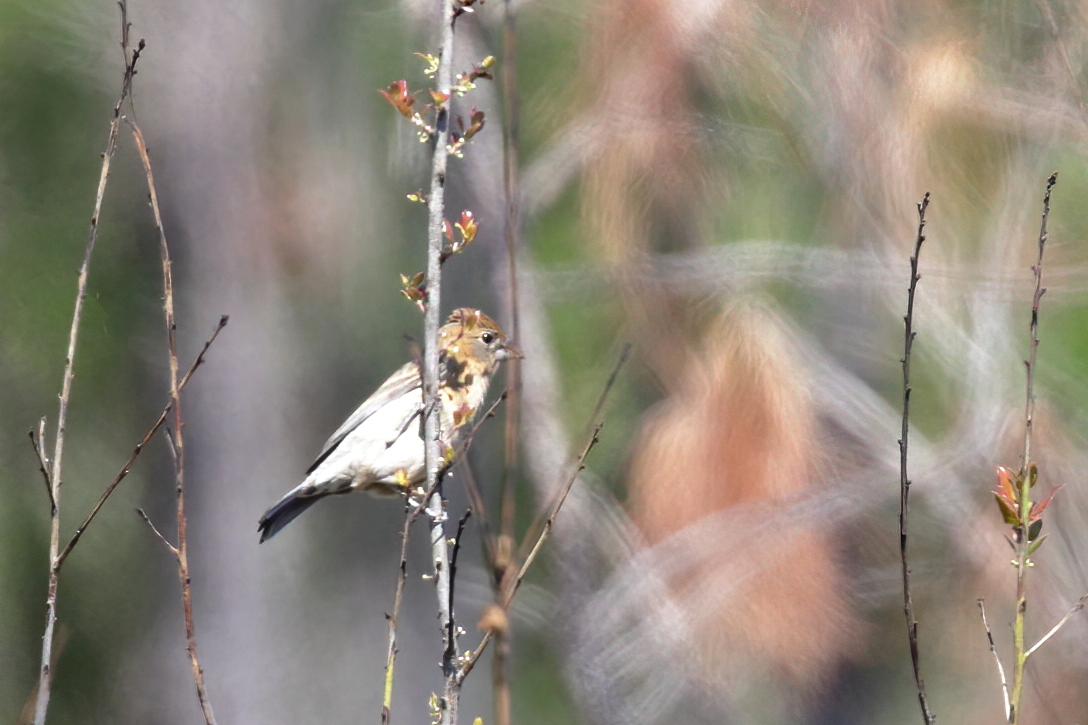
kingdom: Animalia
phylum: Chordata
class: Aves
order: Passeriformes
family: Cardinalidae
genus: Passerina
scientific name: Passerina caerulea
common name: Blue grosbeak
